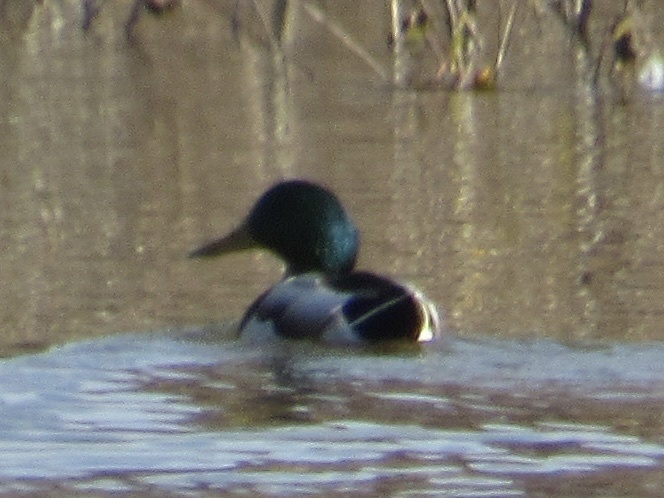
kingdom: Animalia
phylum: Chordata
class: Aves
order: Anseriformes
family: Anatidae
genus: Anas
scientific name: Anas platyrhynchos
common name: Mallard
